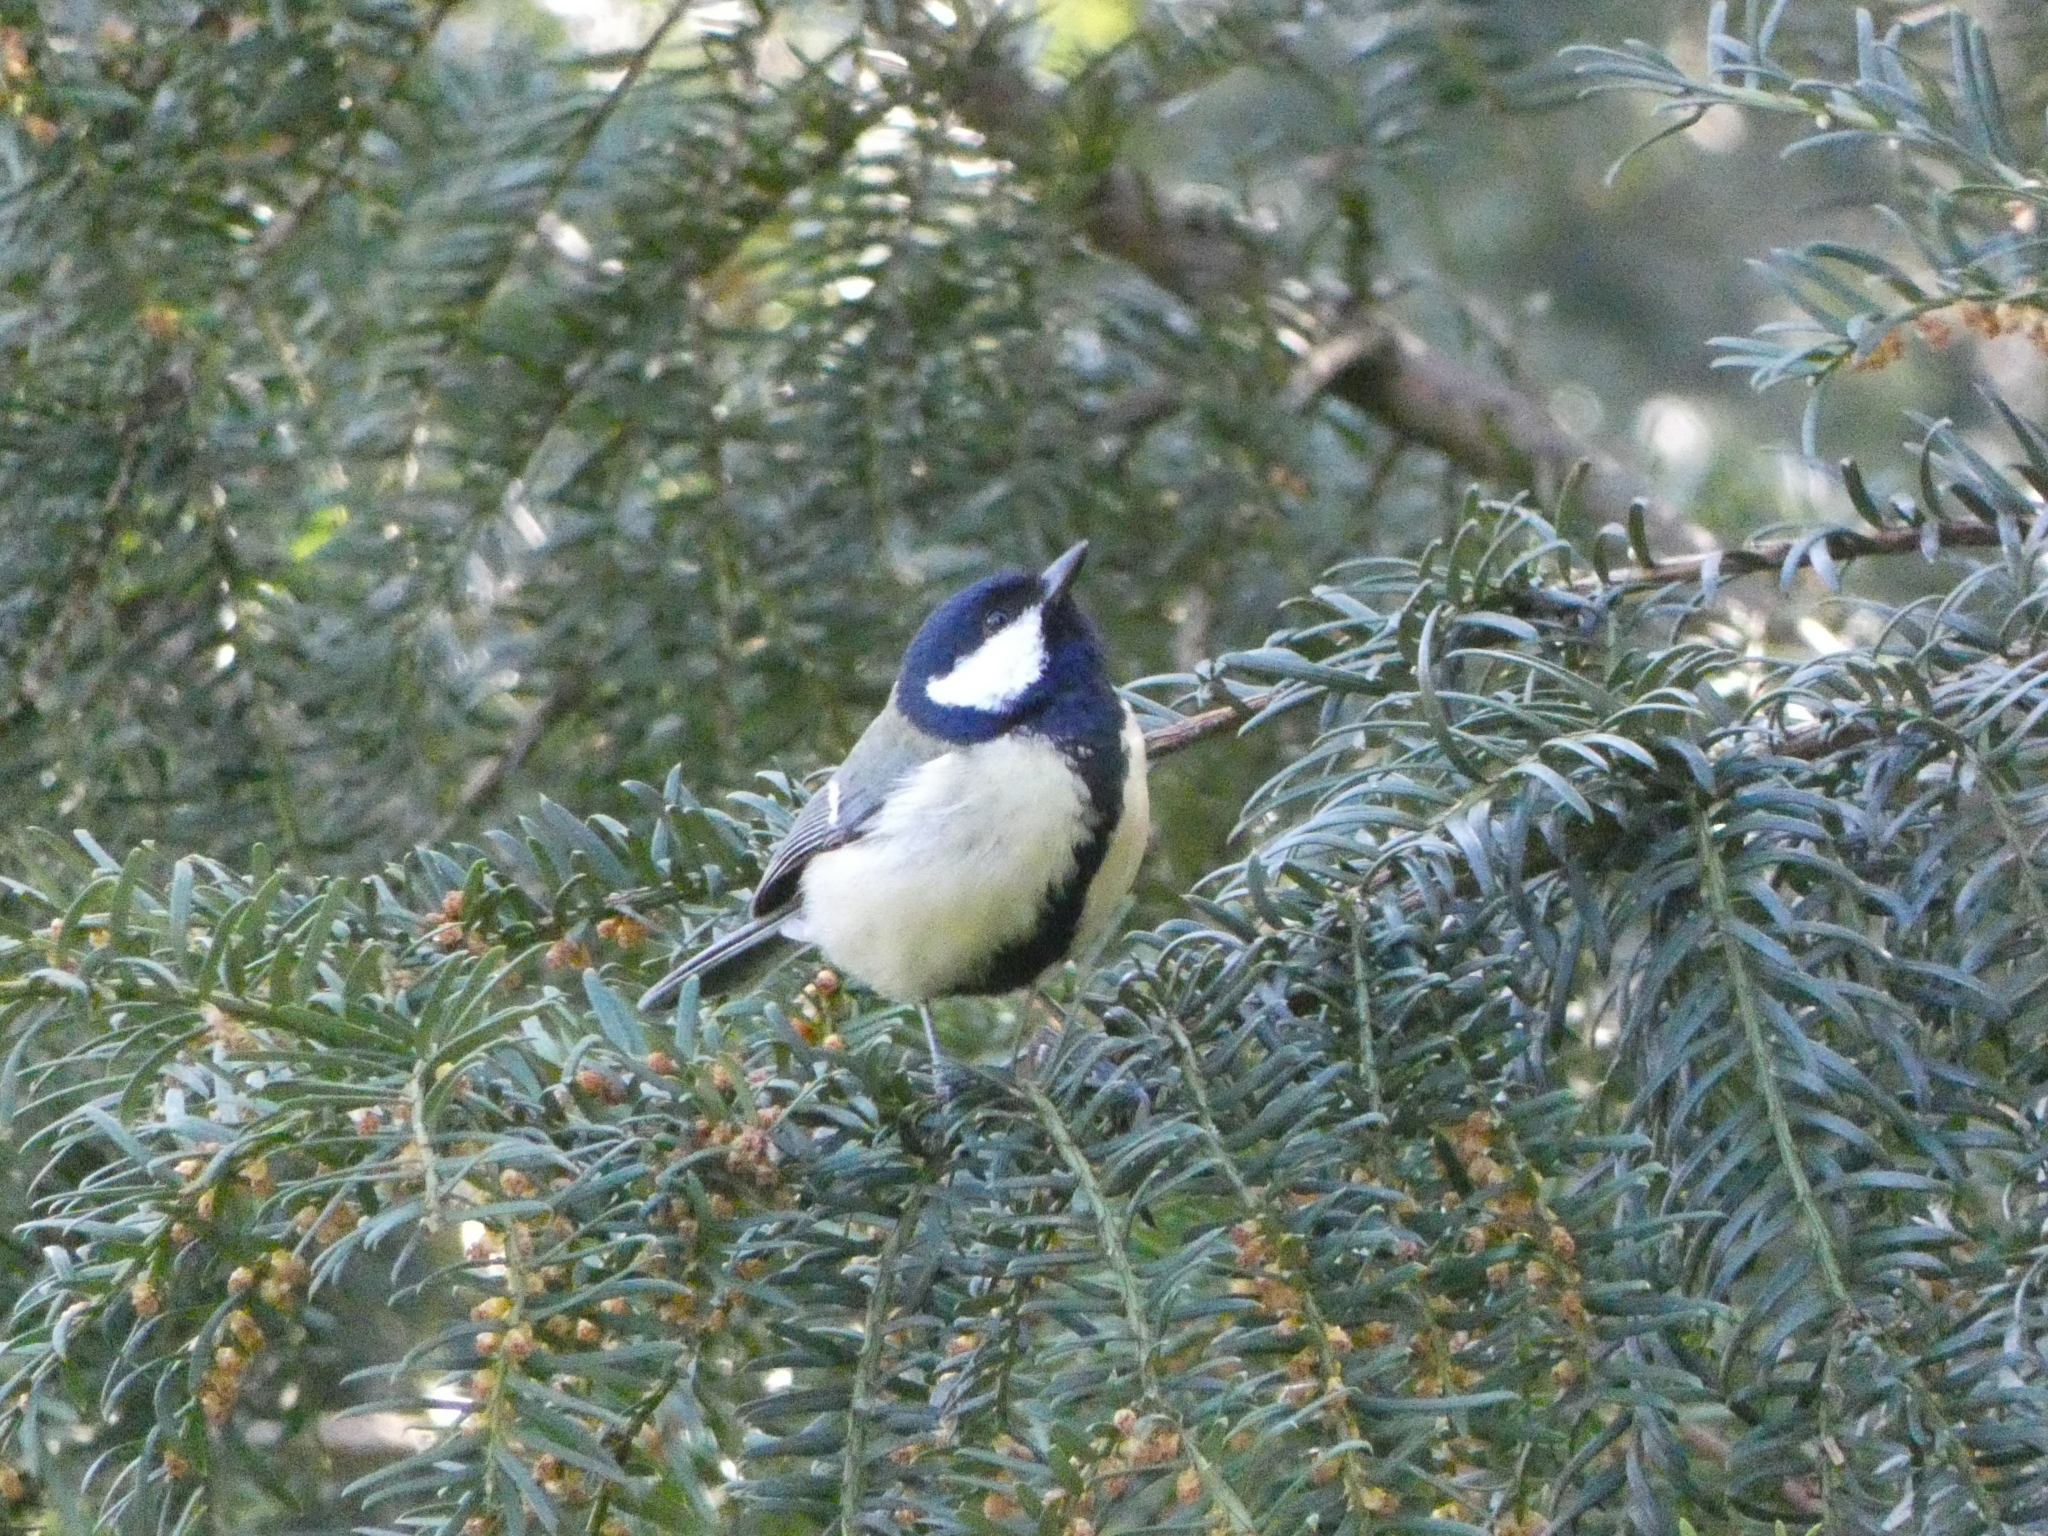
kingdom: Animalia
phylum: Chordata
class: Aves
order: Passeriformes
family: Paridae
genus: Parus
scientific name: Parus major
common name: Great tit
